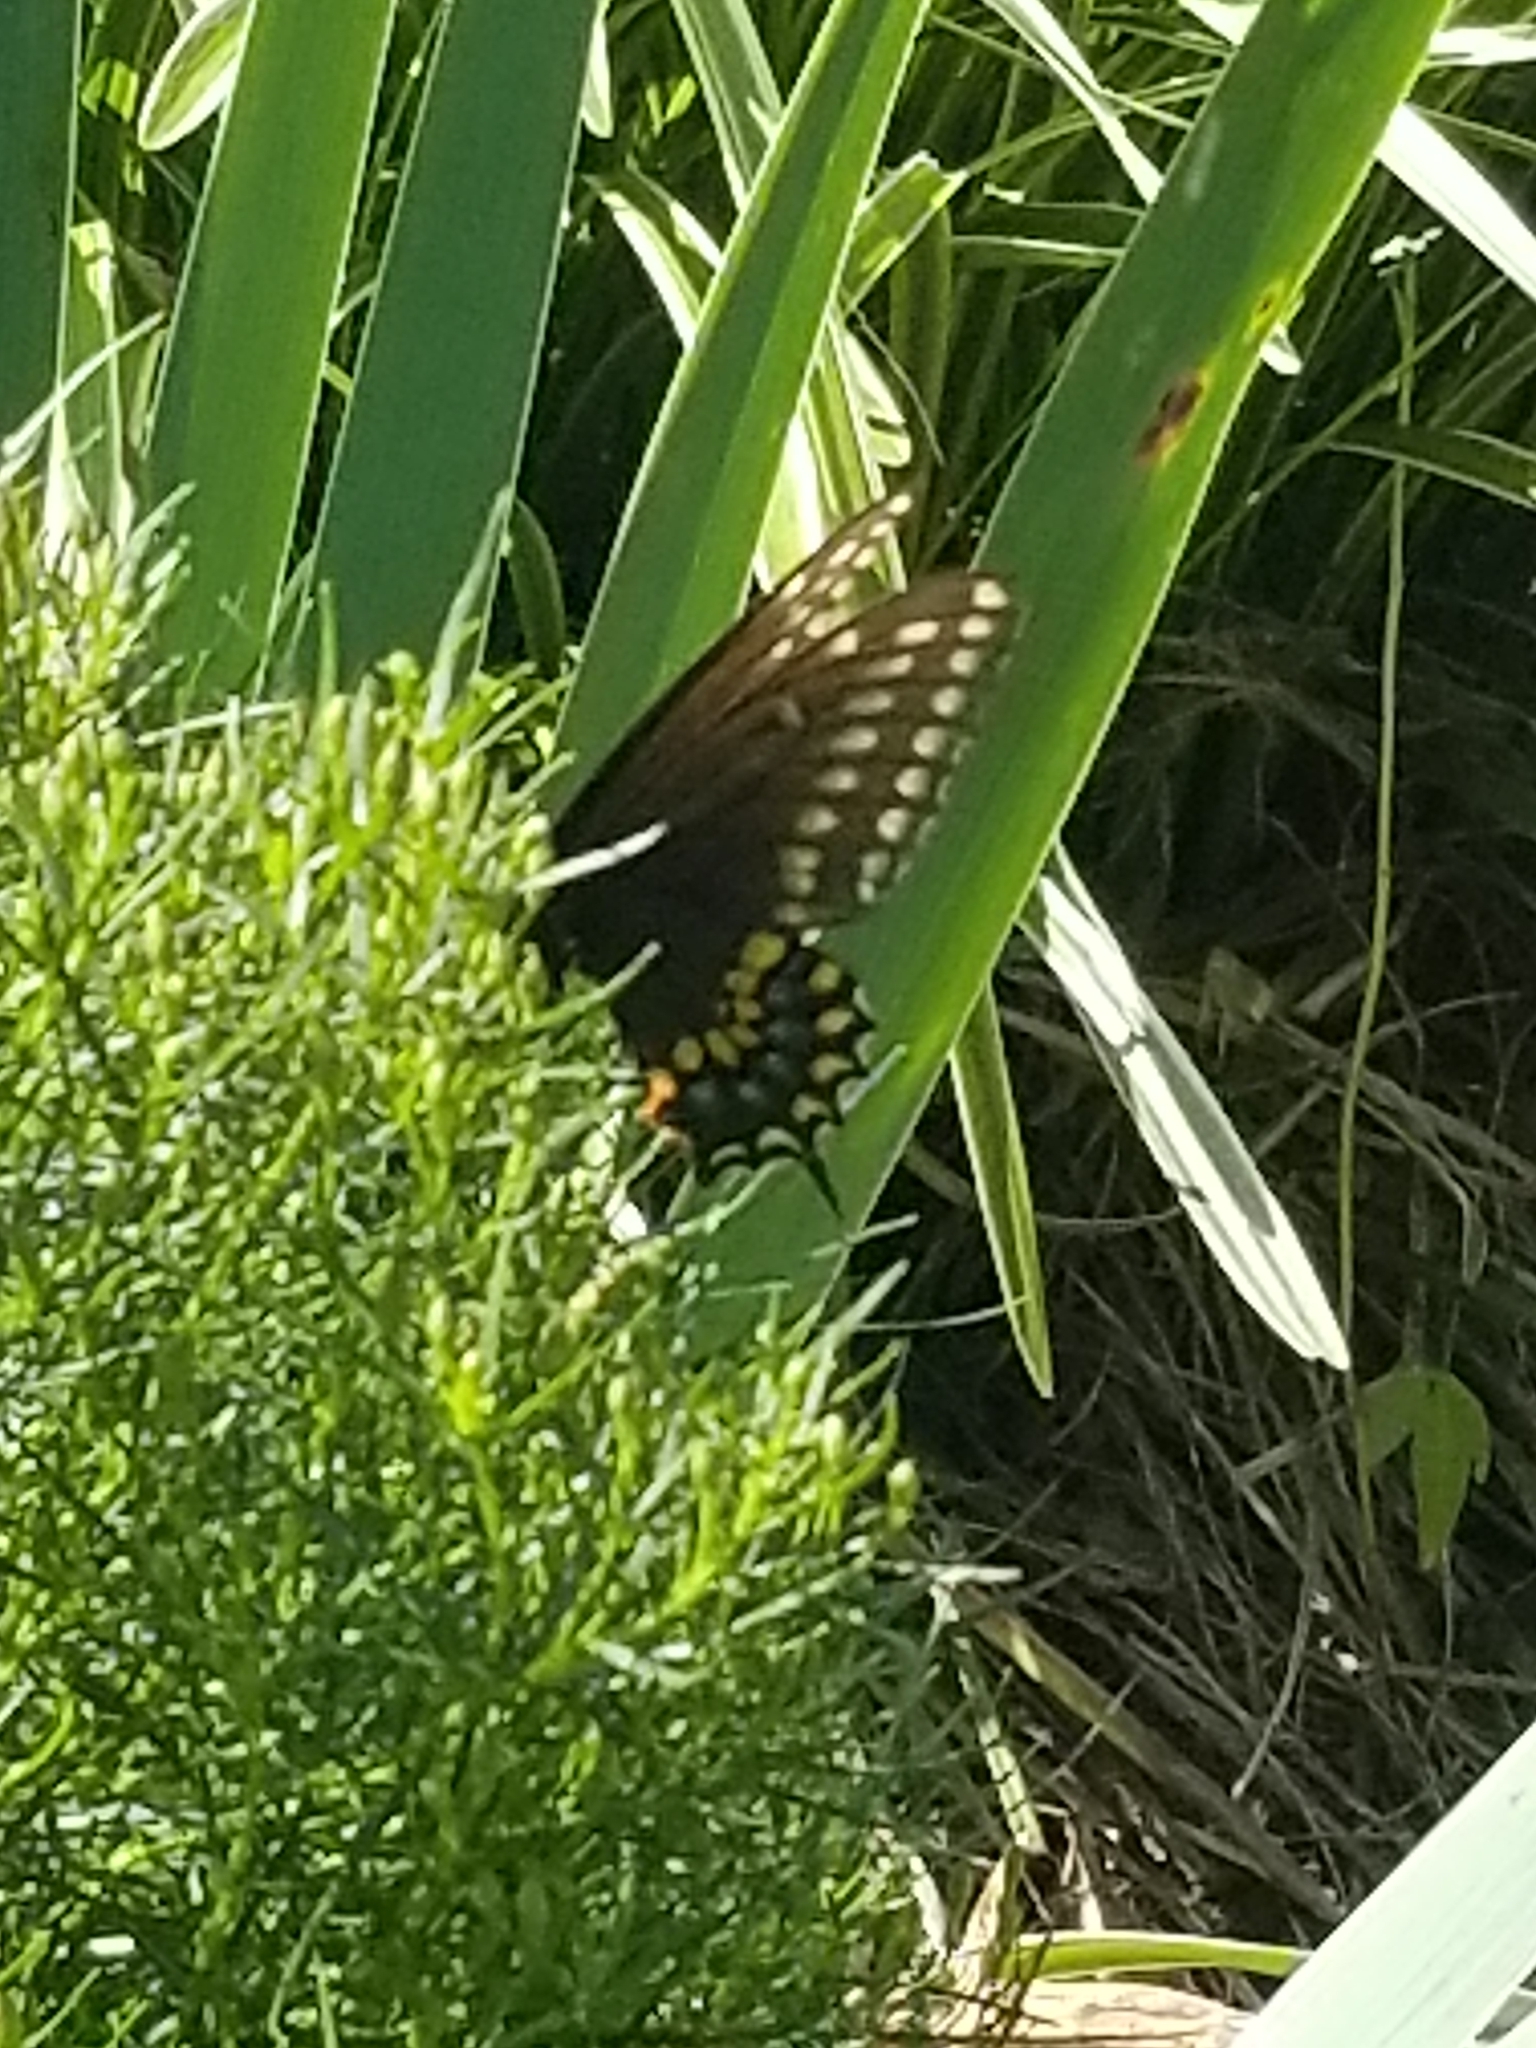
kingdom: Animalia
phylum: Arthropoda
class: Insecta
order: Lepidoptera
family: Papilionidae
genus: Papilio
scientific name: Papilio polyxenes
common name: Black swallowtail
